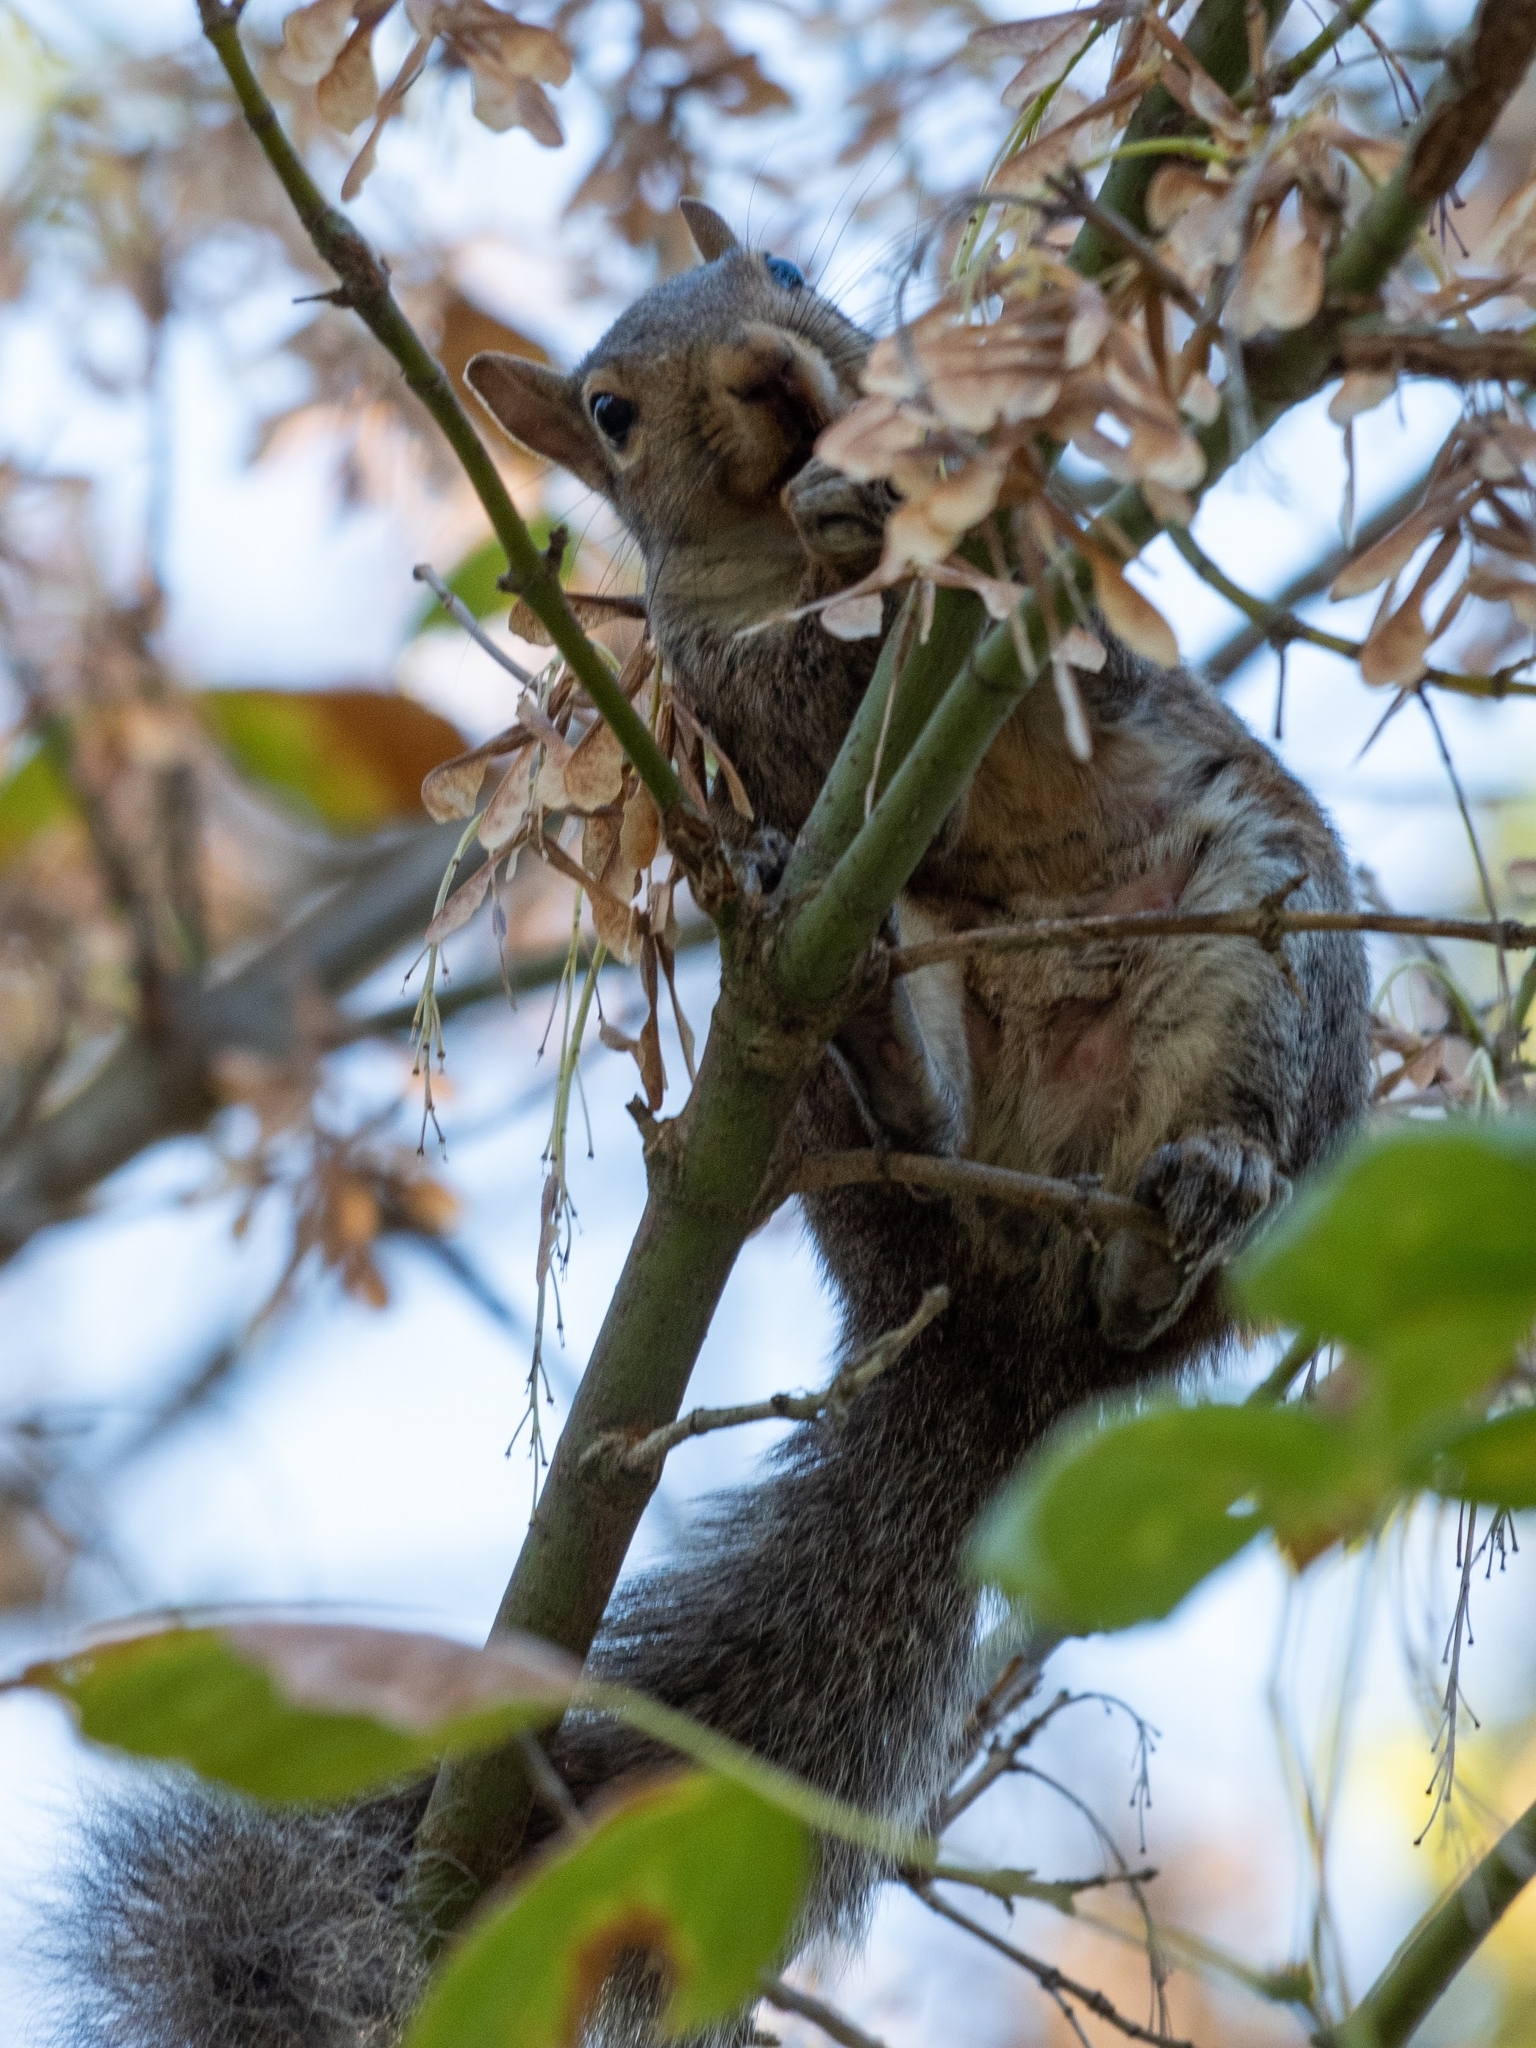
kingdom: Animalia
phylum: Chordata
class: Mammalia
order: Rodentia
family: Sciuridae
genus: Sciurus
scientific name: Sciurus carolinensis
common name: Eastern gray squirrel
